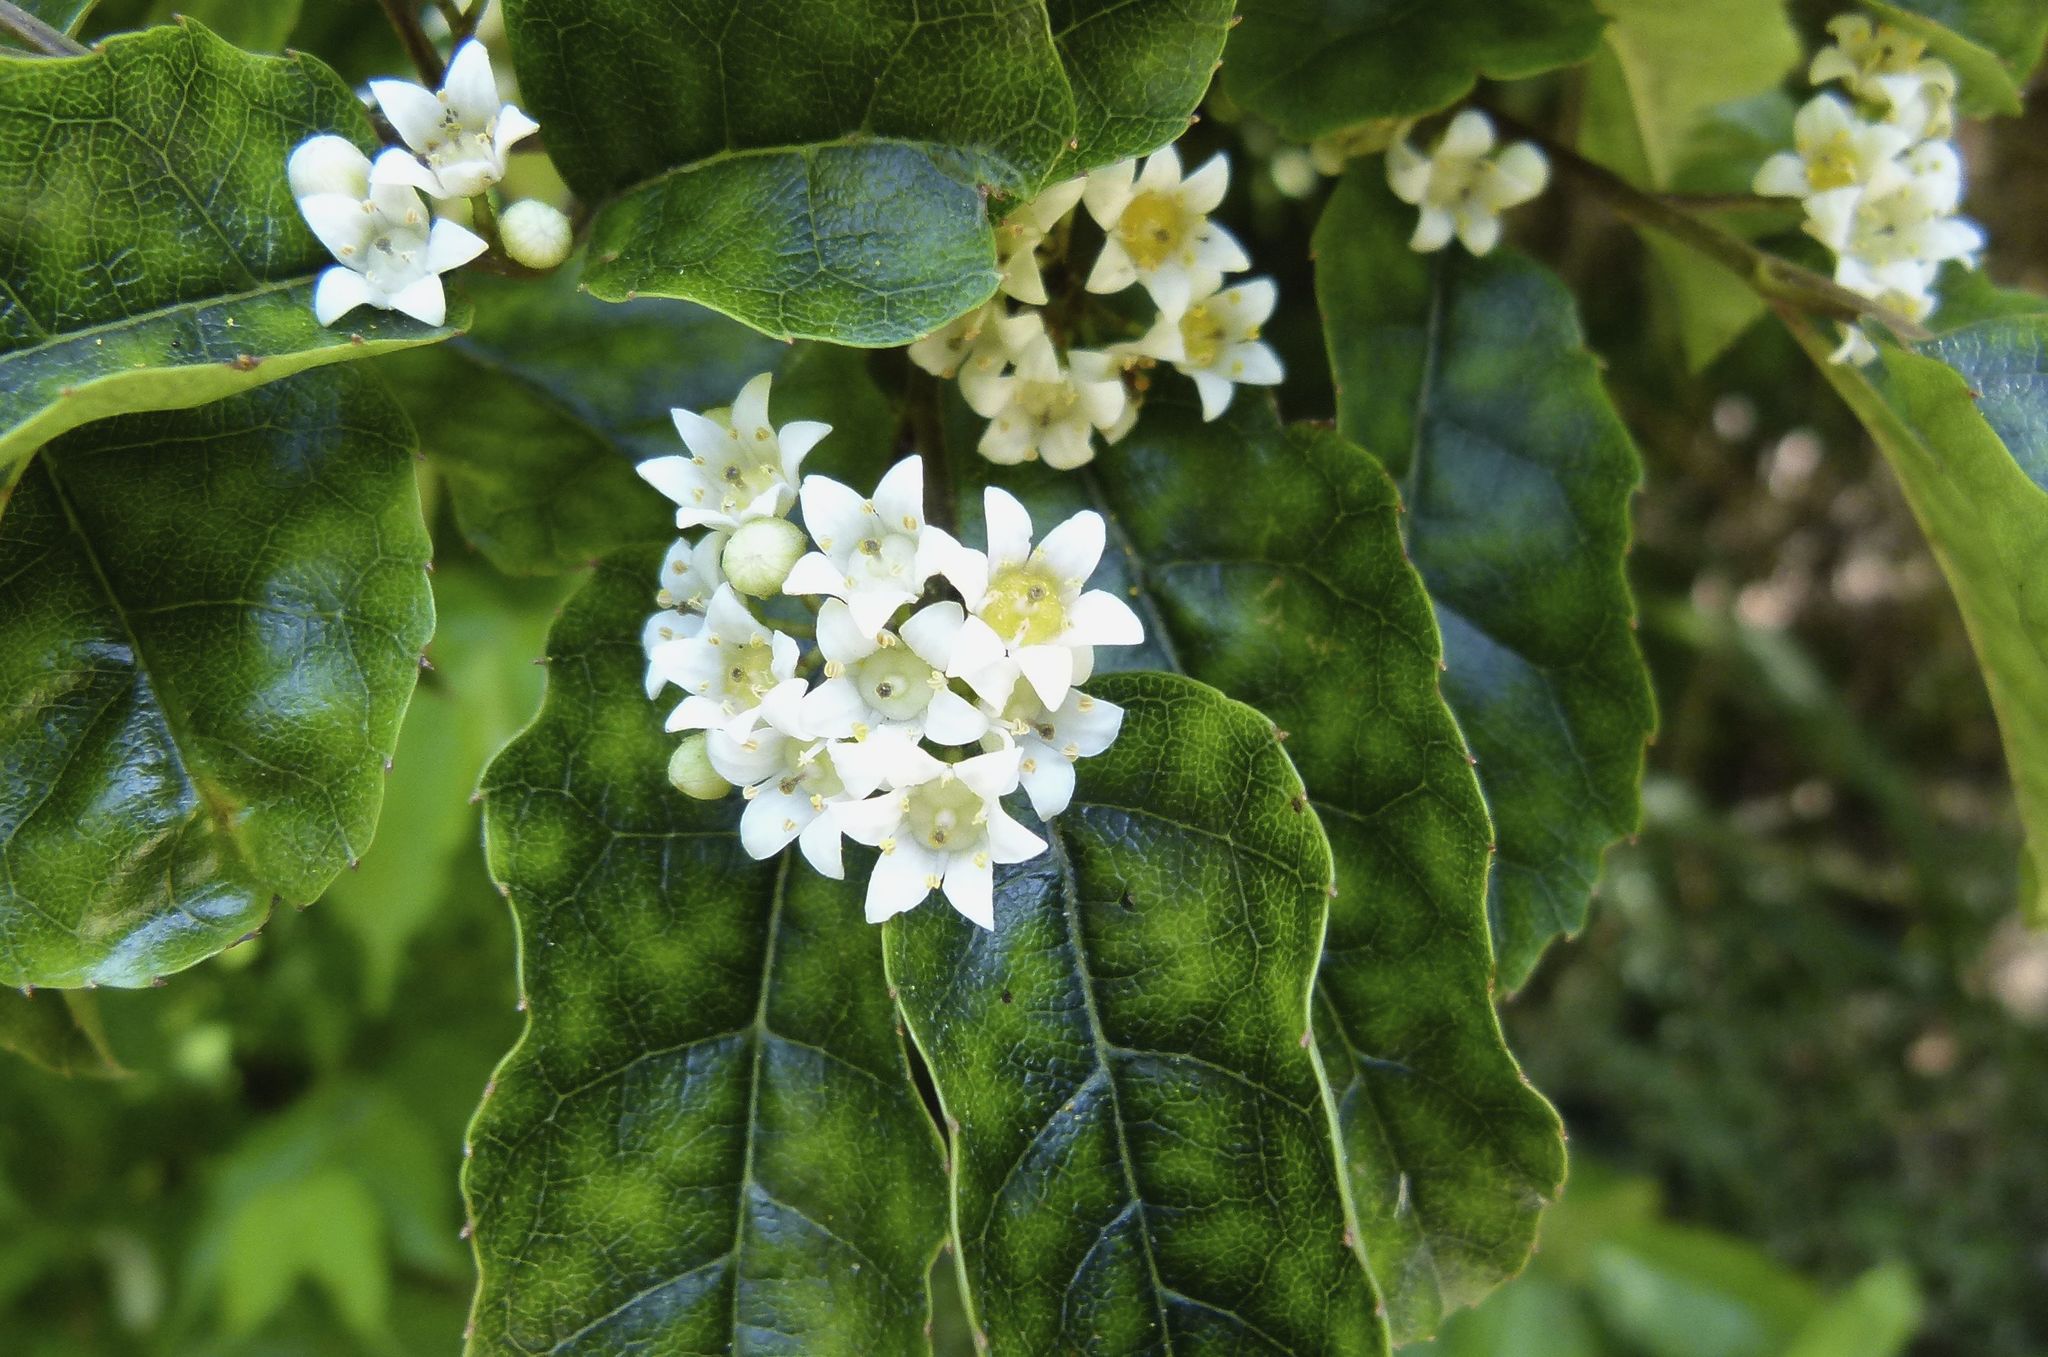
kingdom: Plantae
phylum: Tracheophyta
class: Magnoliopsida
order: Asterales
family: Rousseaceae
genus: Carpodetus
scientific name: Carpodetus serratus
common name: White mapau
